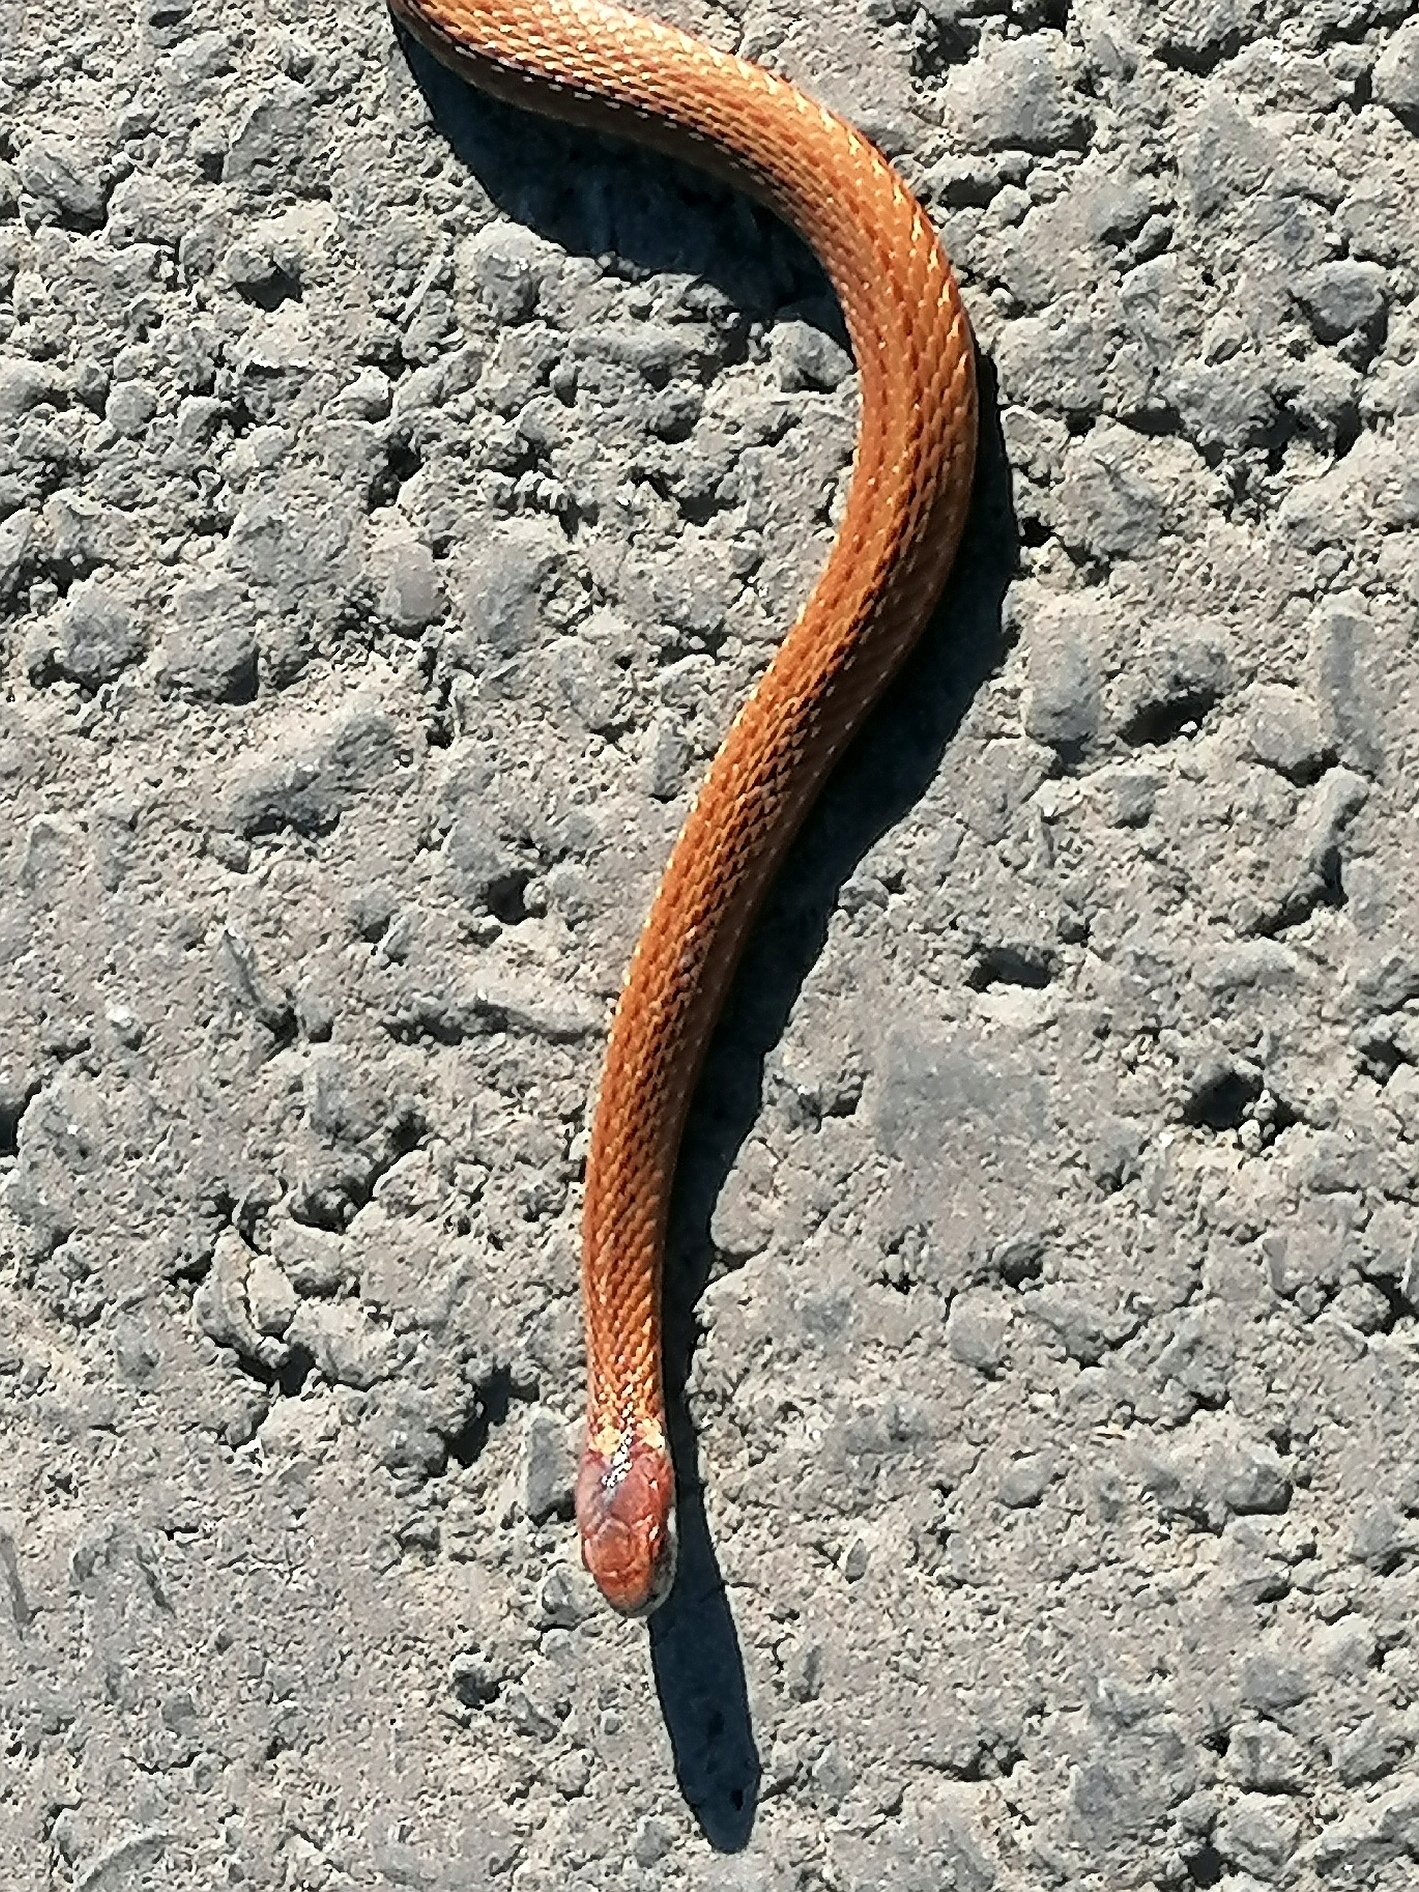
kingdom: Animalia
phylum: Chordata
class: Squamata
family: Colubridae
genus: Storeria
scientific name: Storeria occipitomaculata
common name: Redbelly snake
